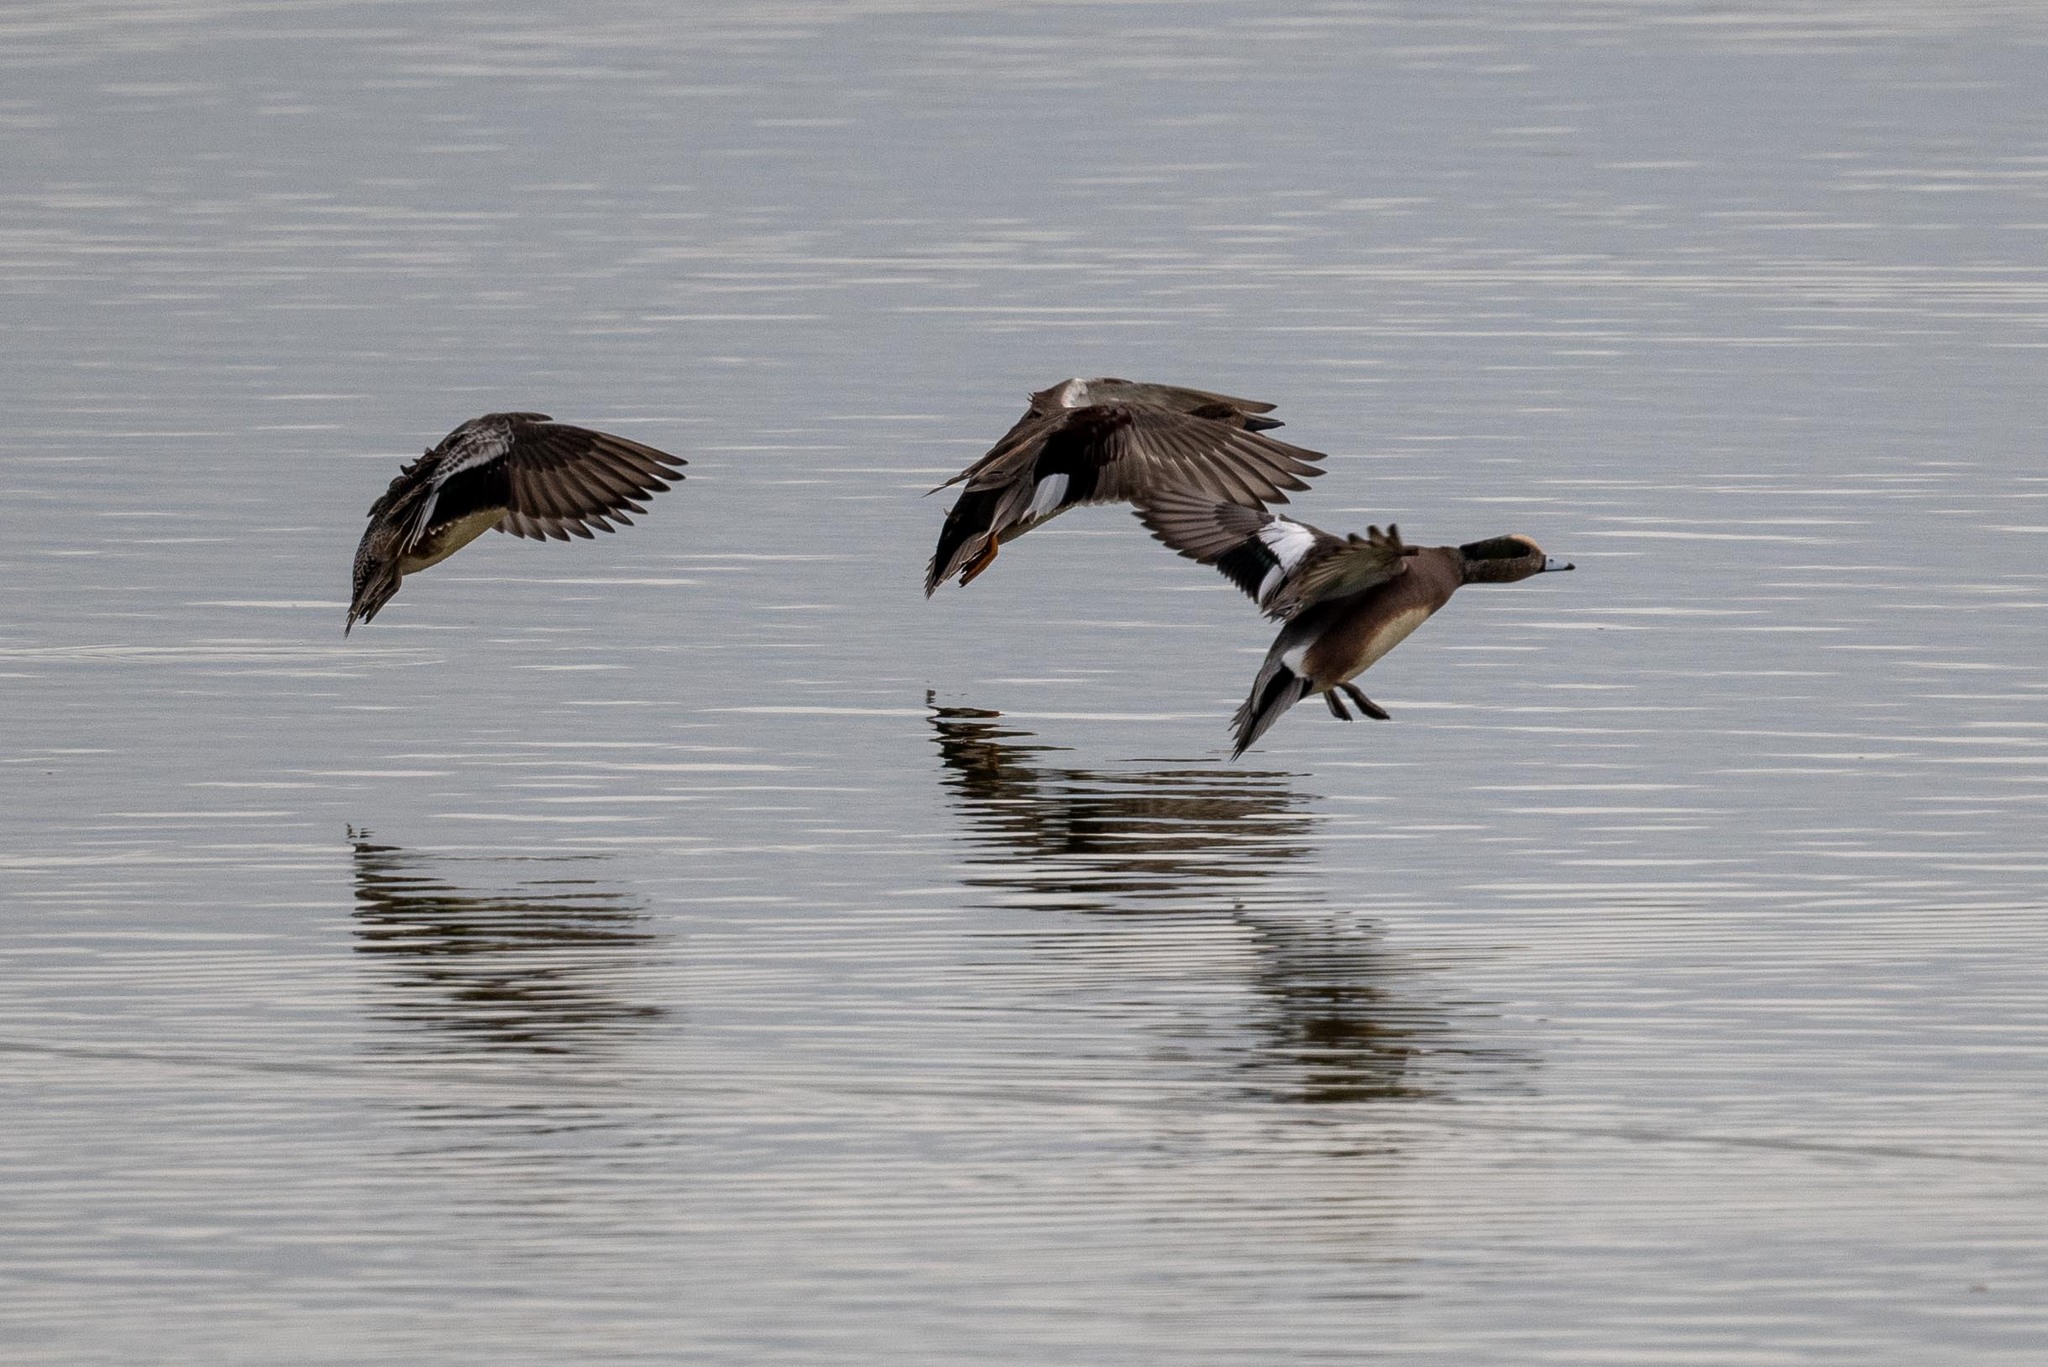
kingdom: Animalia
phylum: Chordata
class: Aves
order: Anseriformes
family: Anatidae
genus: Mareca
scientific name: Mareca americana
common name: American wigeon
